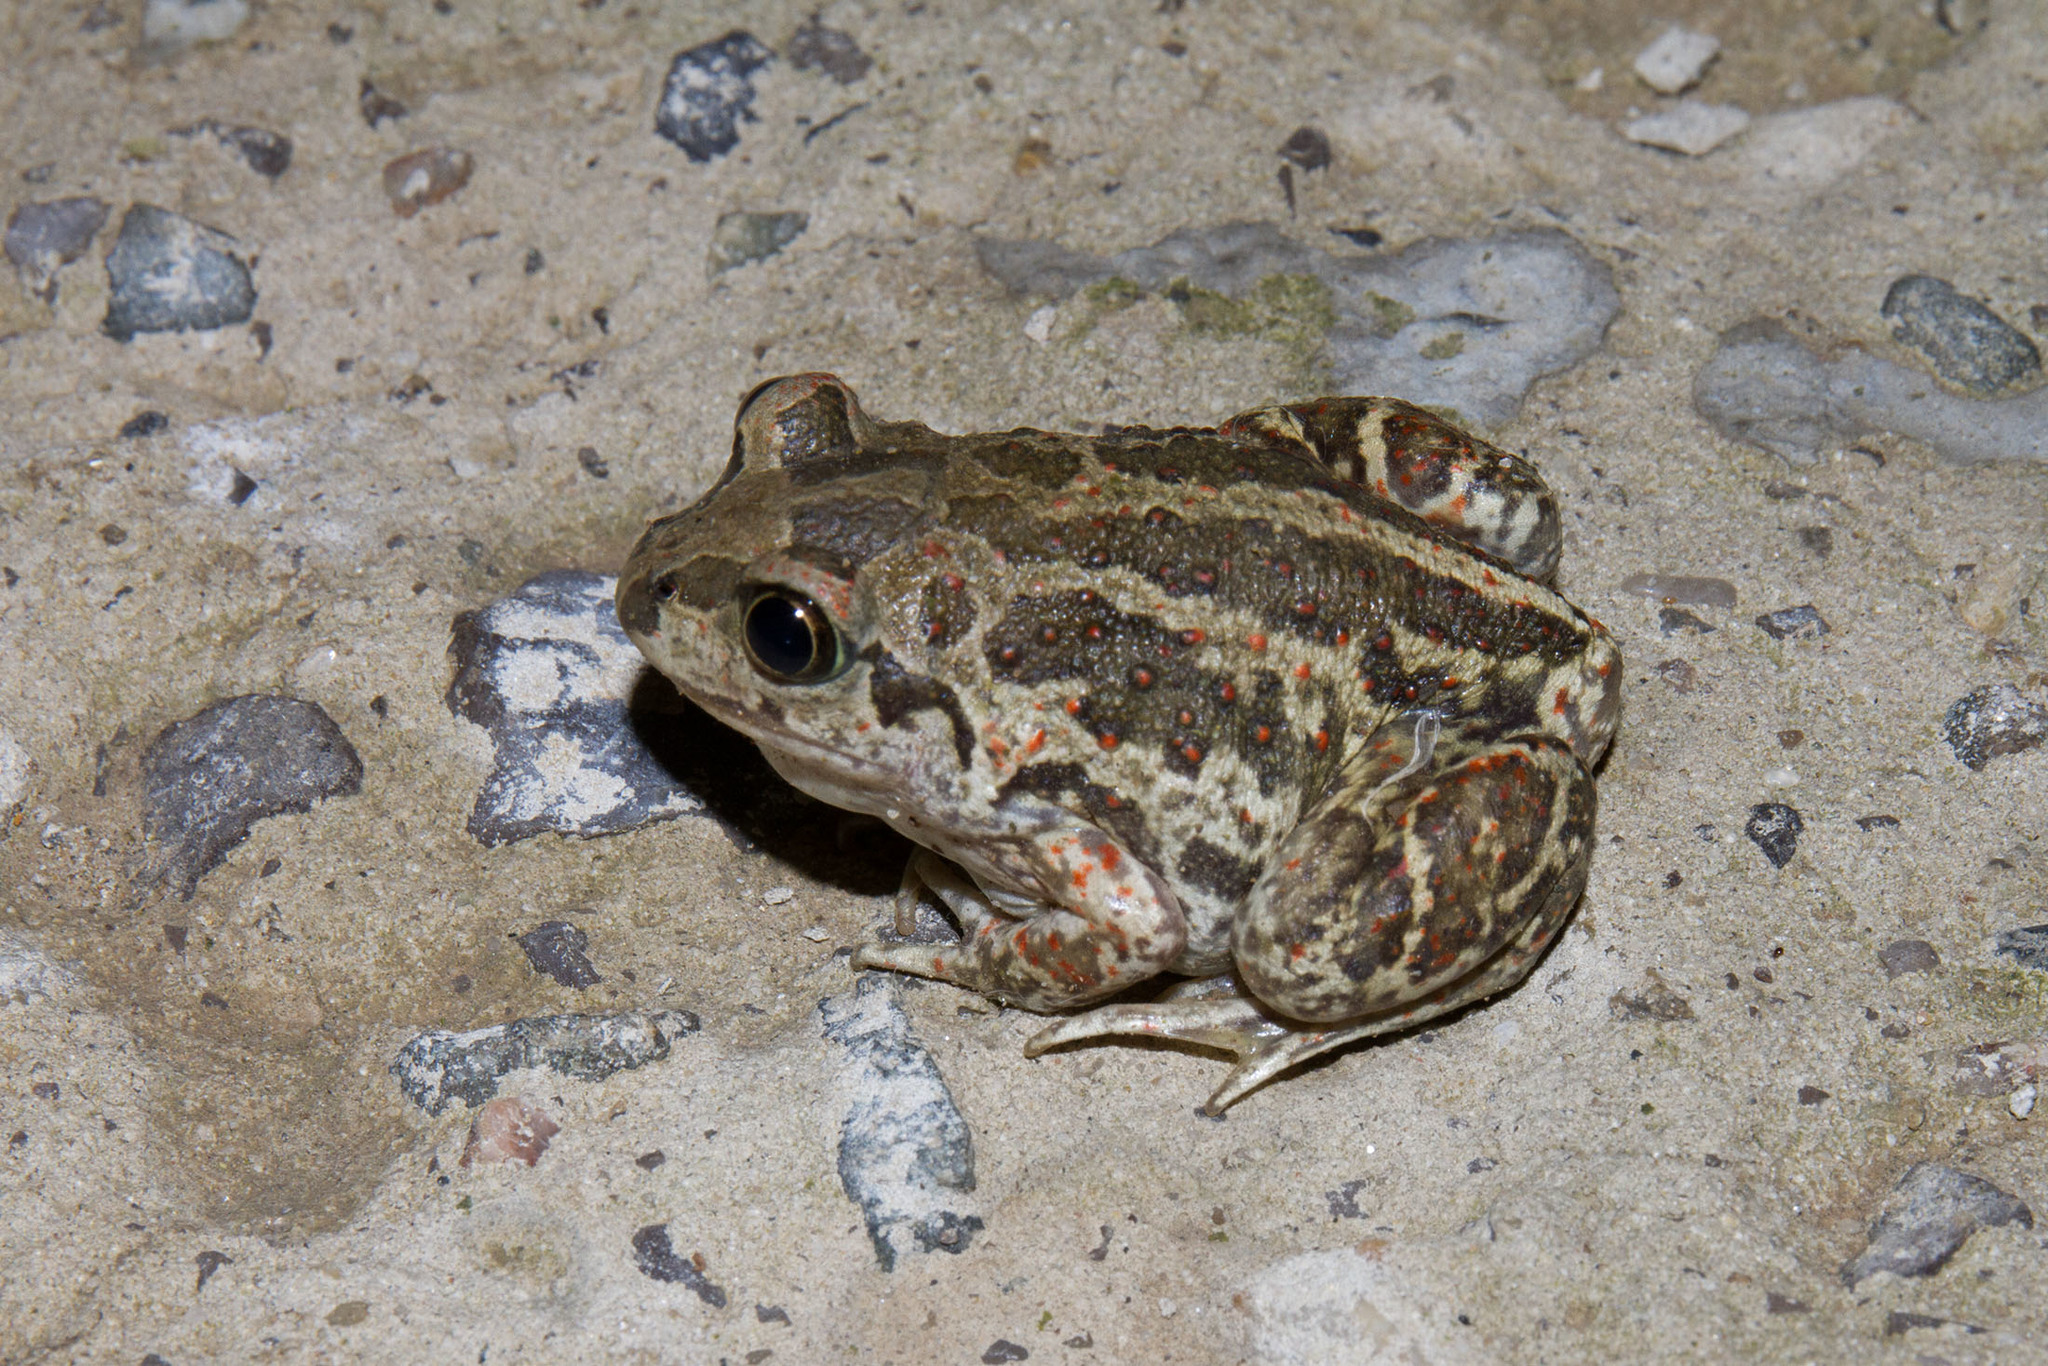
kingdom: Animalia
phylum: Chordata
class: Amphibia
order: Anura
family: Pelobatidae
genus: Pelobates
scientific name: Pelobates vespertinus
